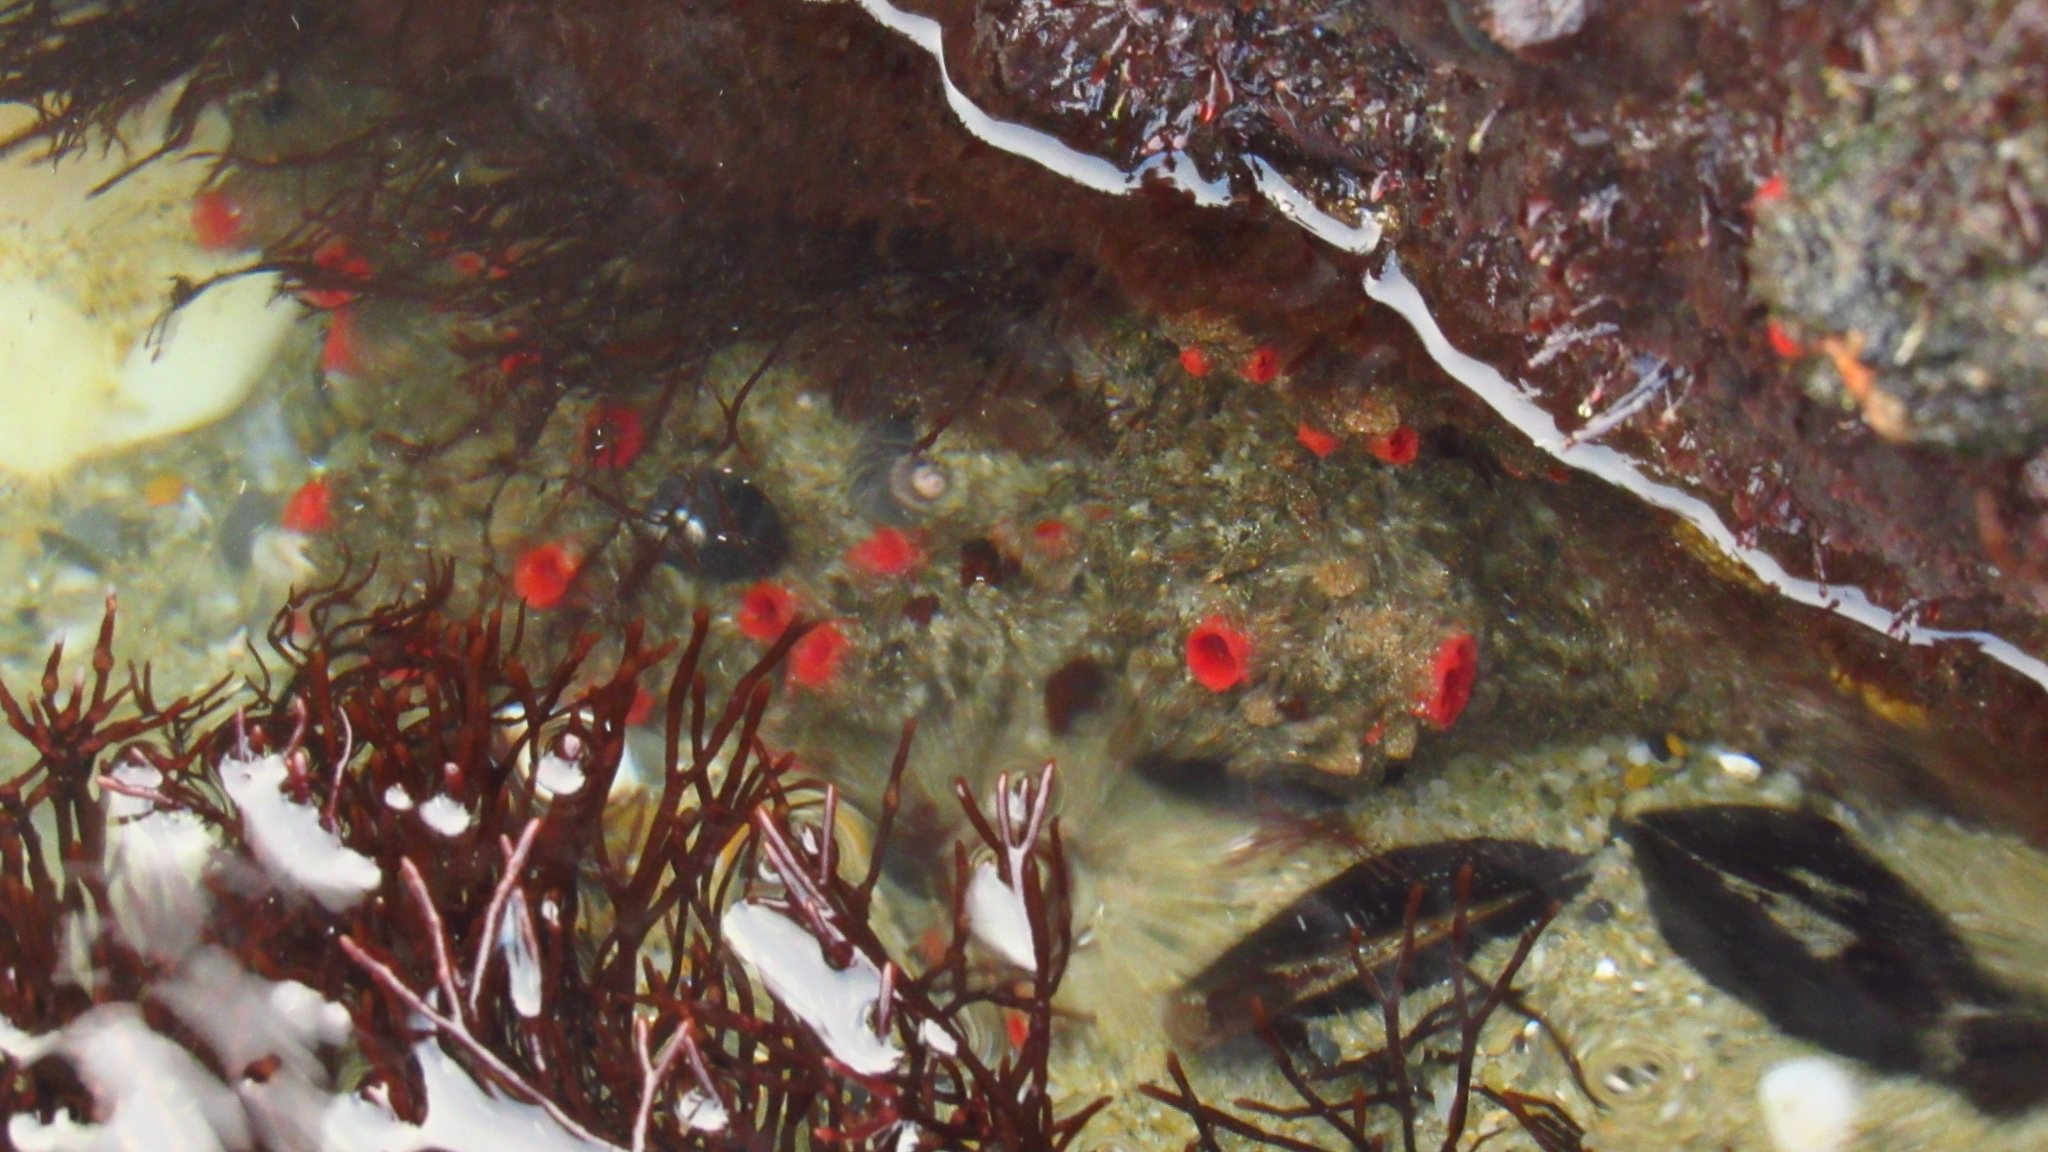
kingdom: Animalia
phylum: Chordata
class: Ascidiacea
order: Stolidobranchia
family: Pyuridae
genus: Pyura
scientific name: Pyura chilensis
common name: Red sea squirt
